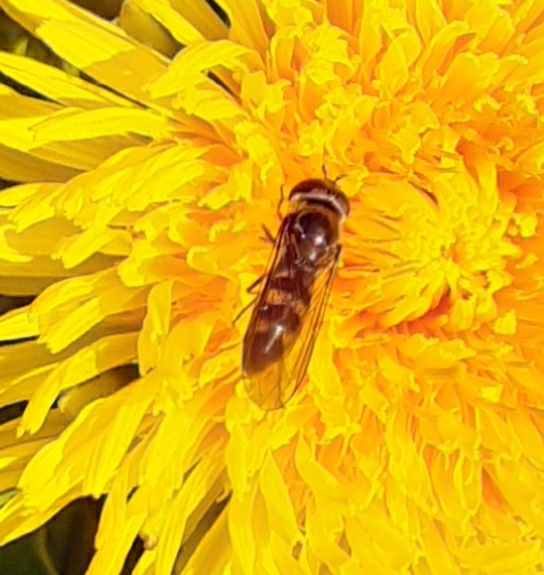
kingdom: Animalia
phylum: Arthropoda
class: Insecta
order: Diptera
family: Syrphidae
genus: Meliscaeva
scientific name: Meliscaeva auricollis
